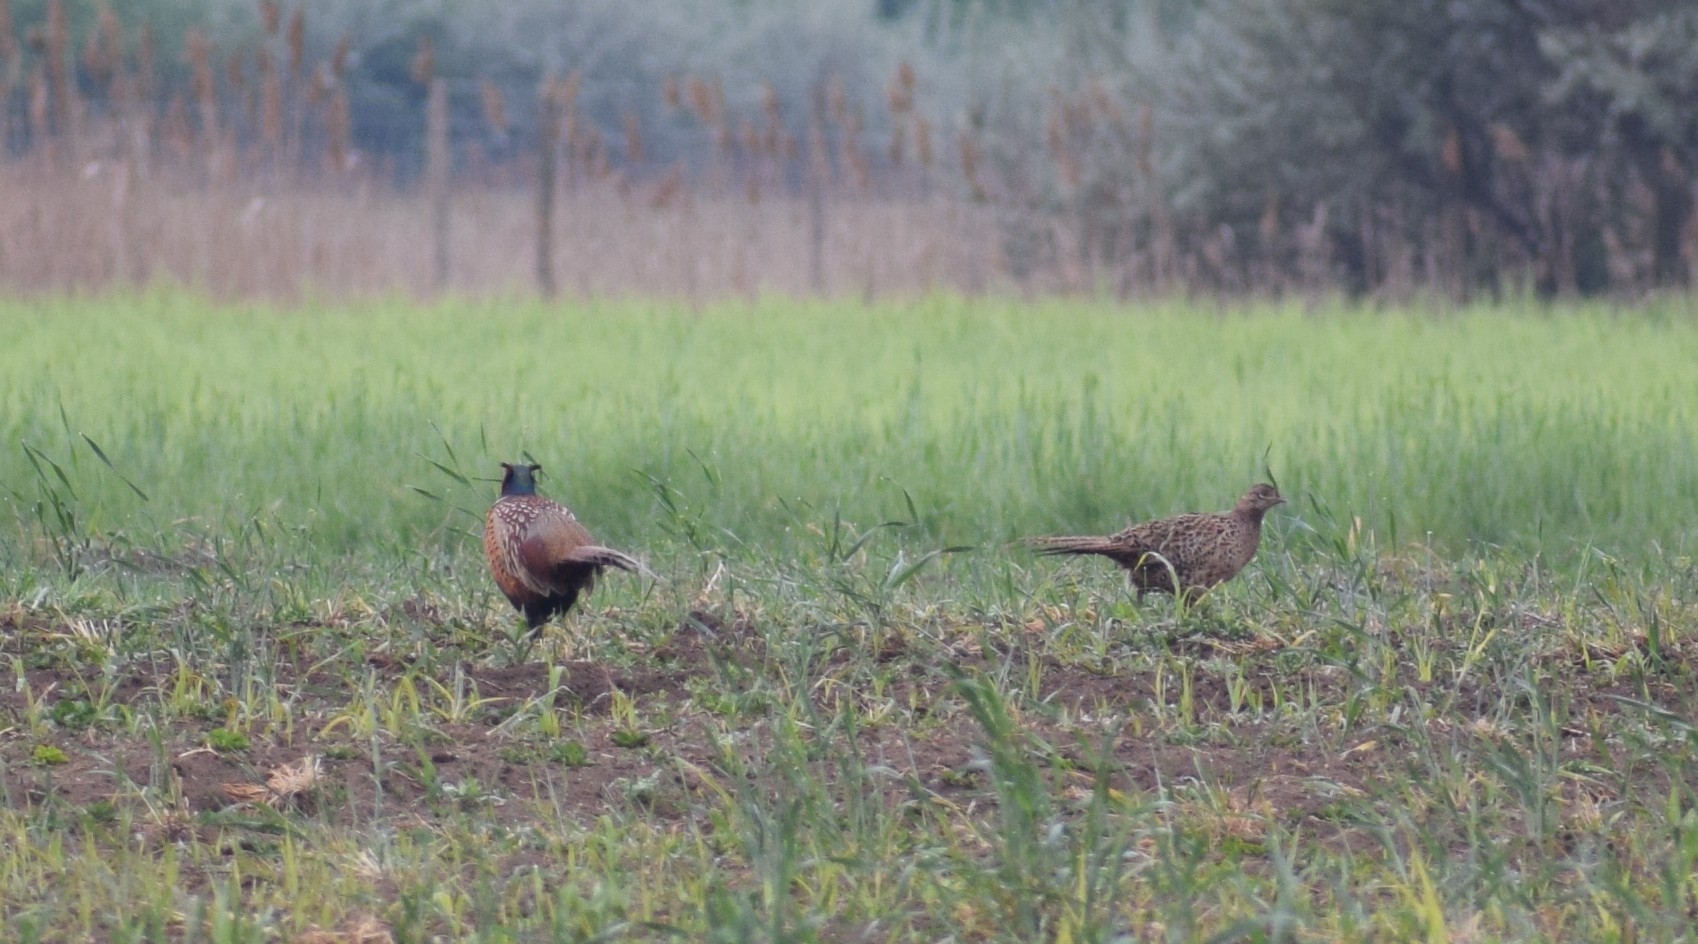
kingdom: Animalia
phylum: Chordata
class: Aves
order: Galliformes
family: Phasianidae
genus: Phasianus
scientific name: Phasianus colchicus
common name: Common pheasant
